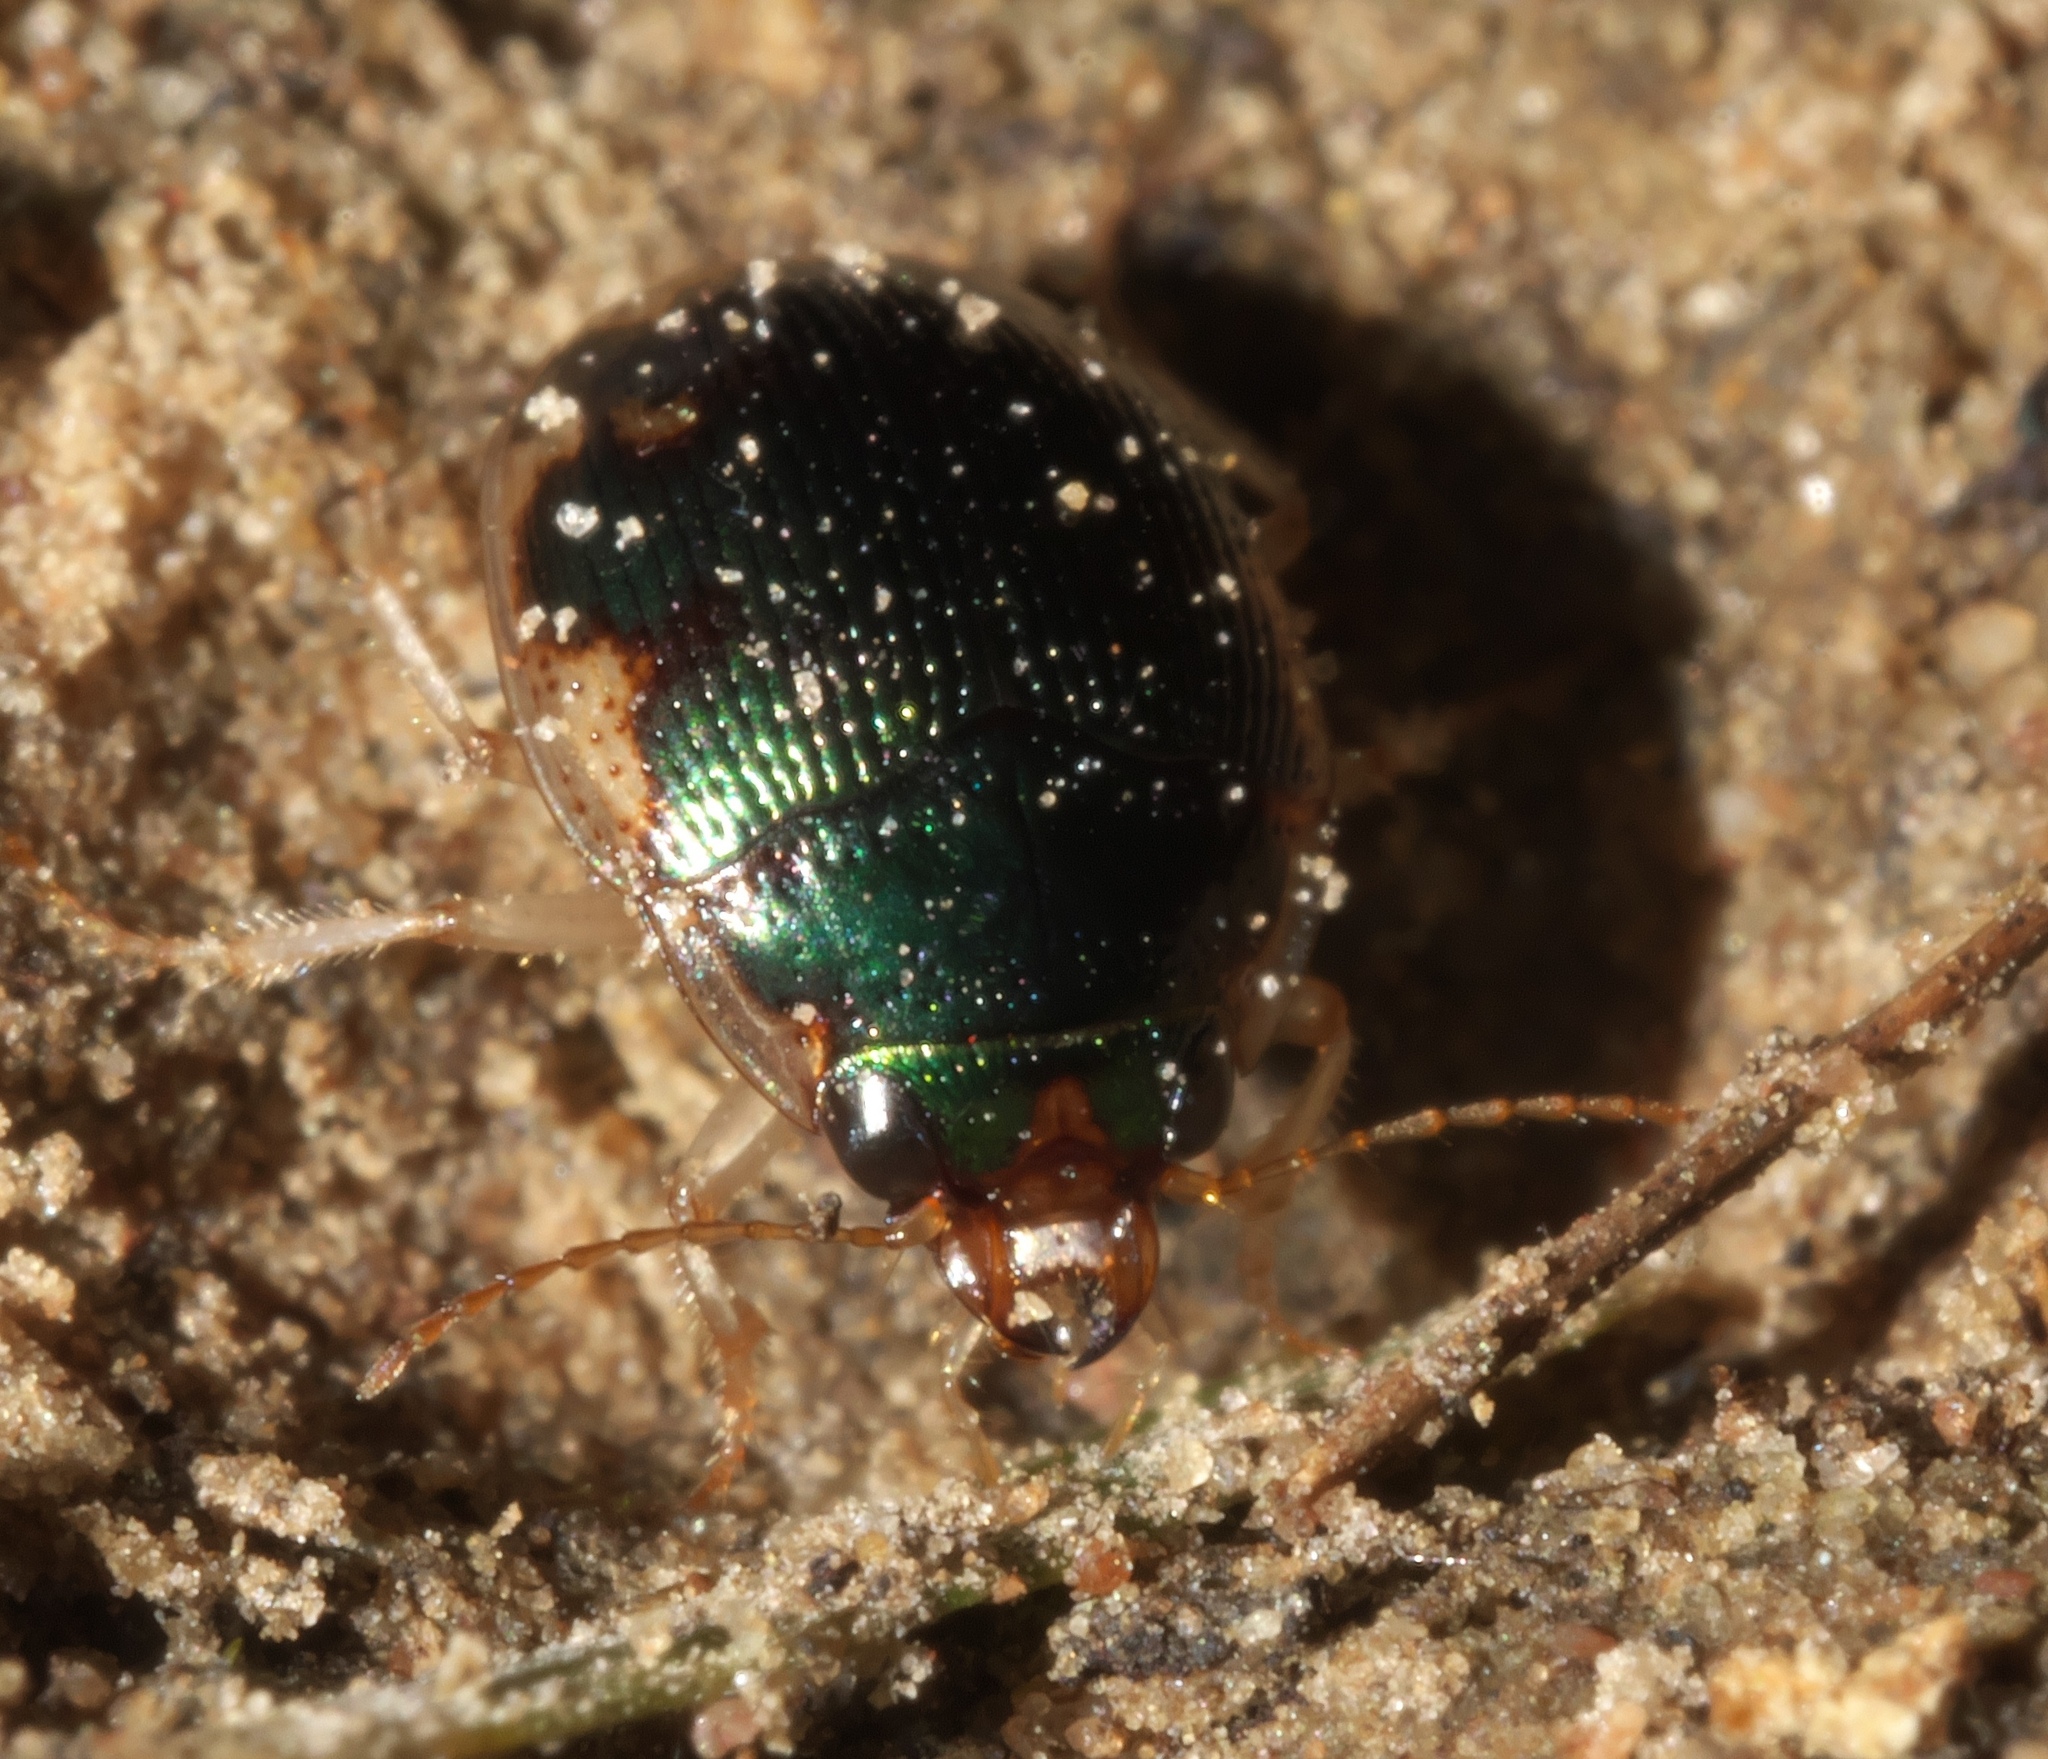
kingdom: Animalia
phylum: Arthropoda
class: Insecta
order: Coleoptera
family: Carabidae
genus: Omophron
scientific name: Omophron nitidum
